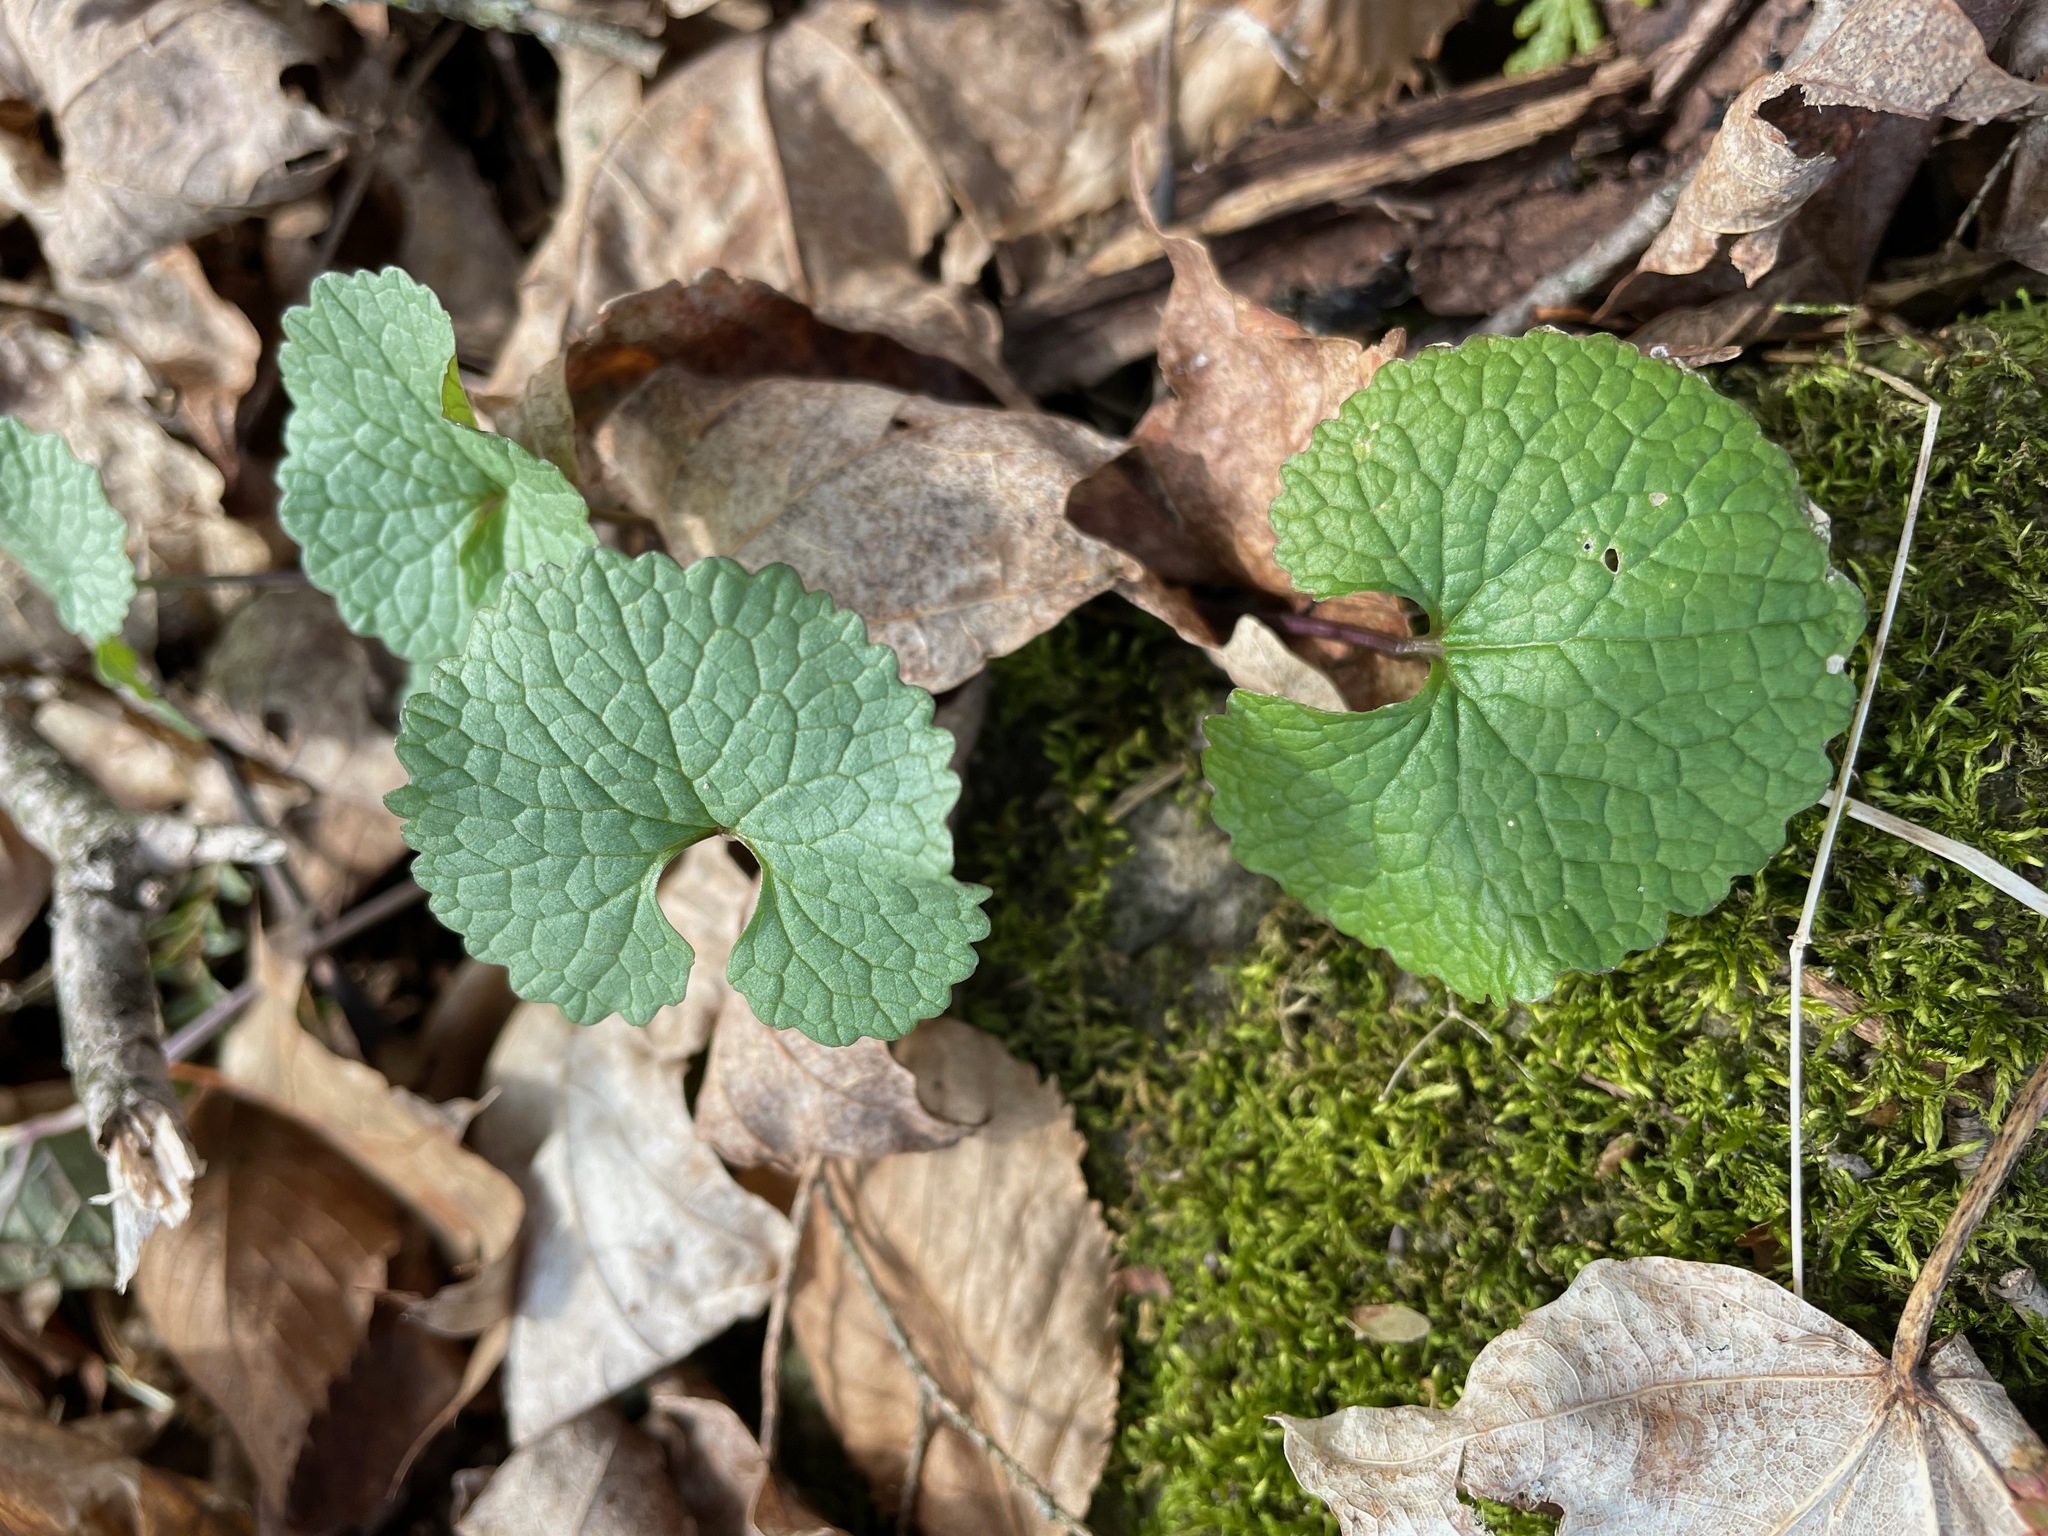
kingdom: Plantae
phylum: Tracheophyta
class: Magnoliopsida
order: Brassicales
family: Brassicaceae
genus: Alliaria
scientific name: Alliaria petiolata
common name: Garlic mustard
